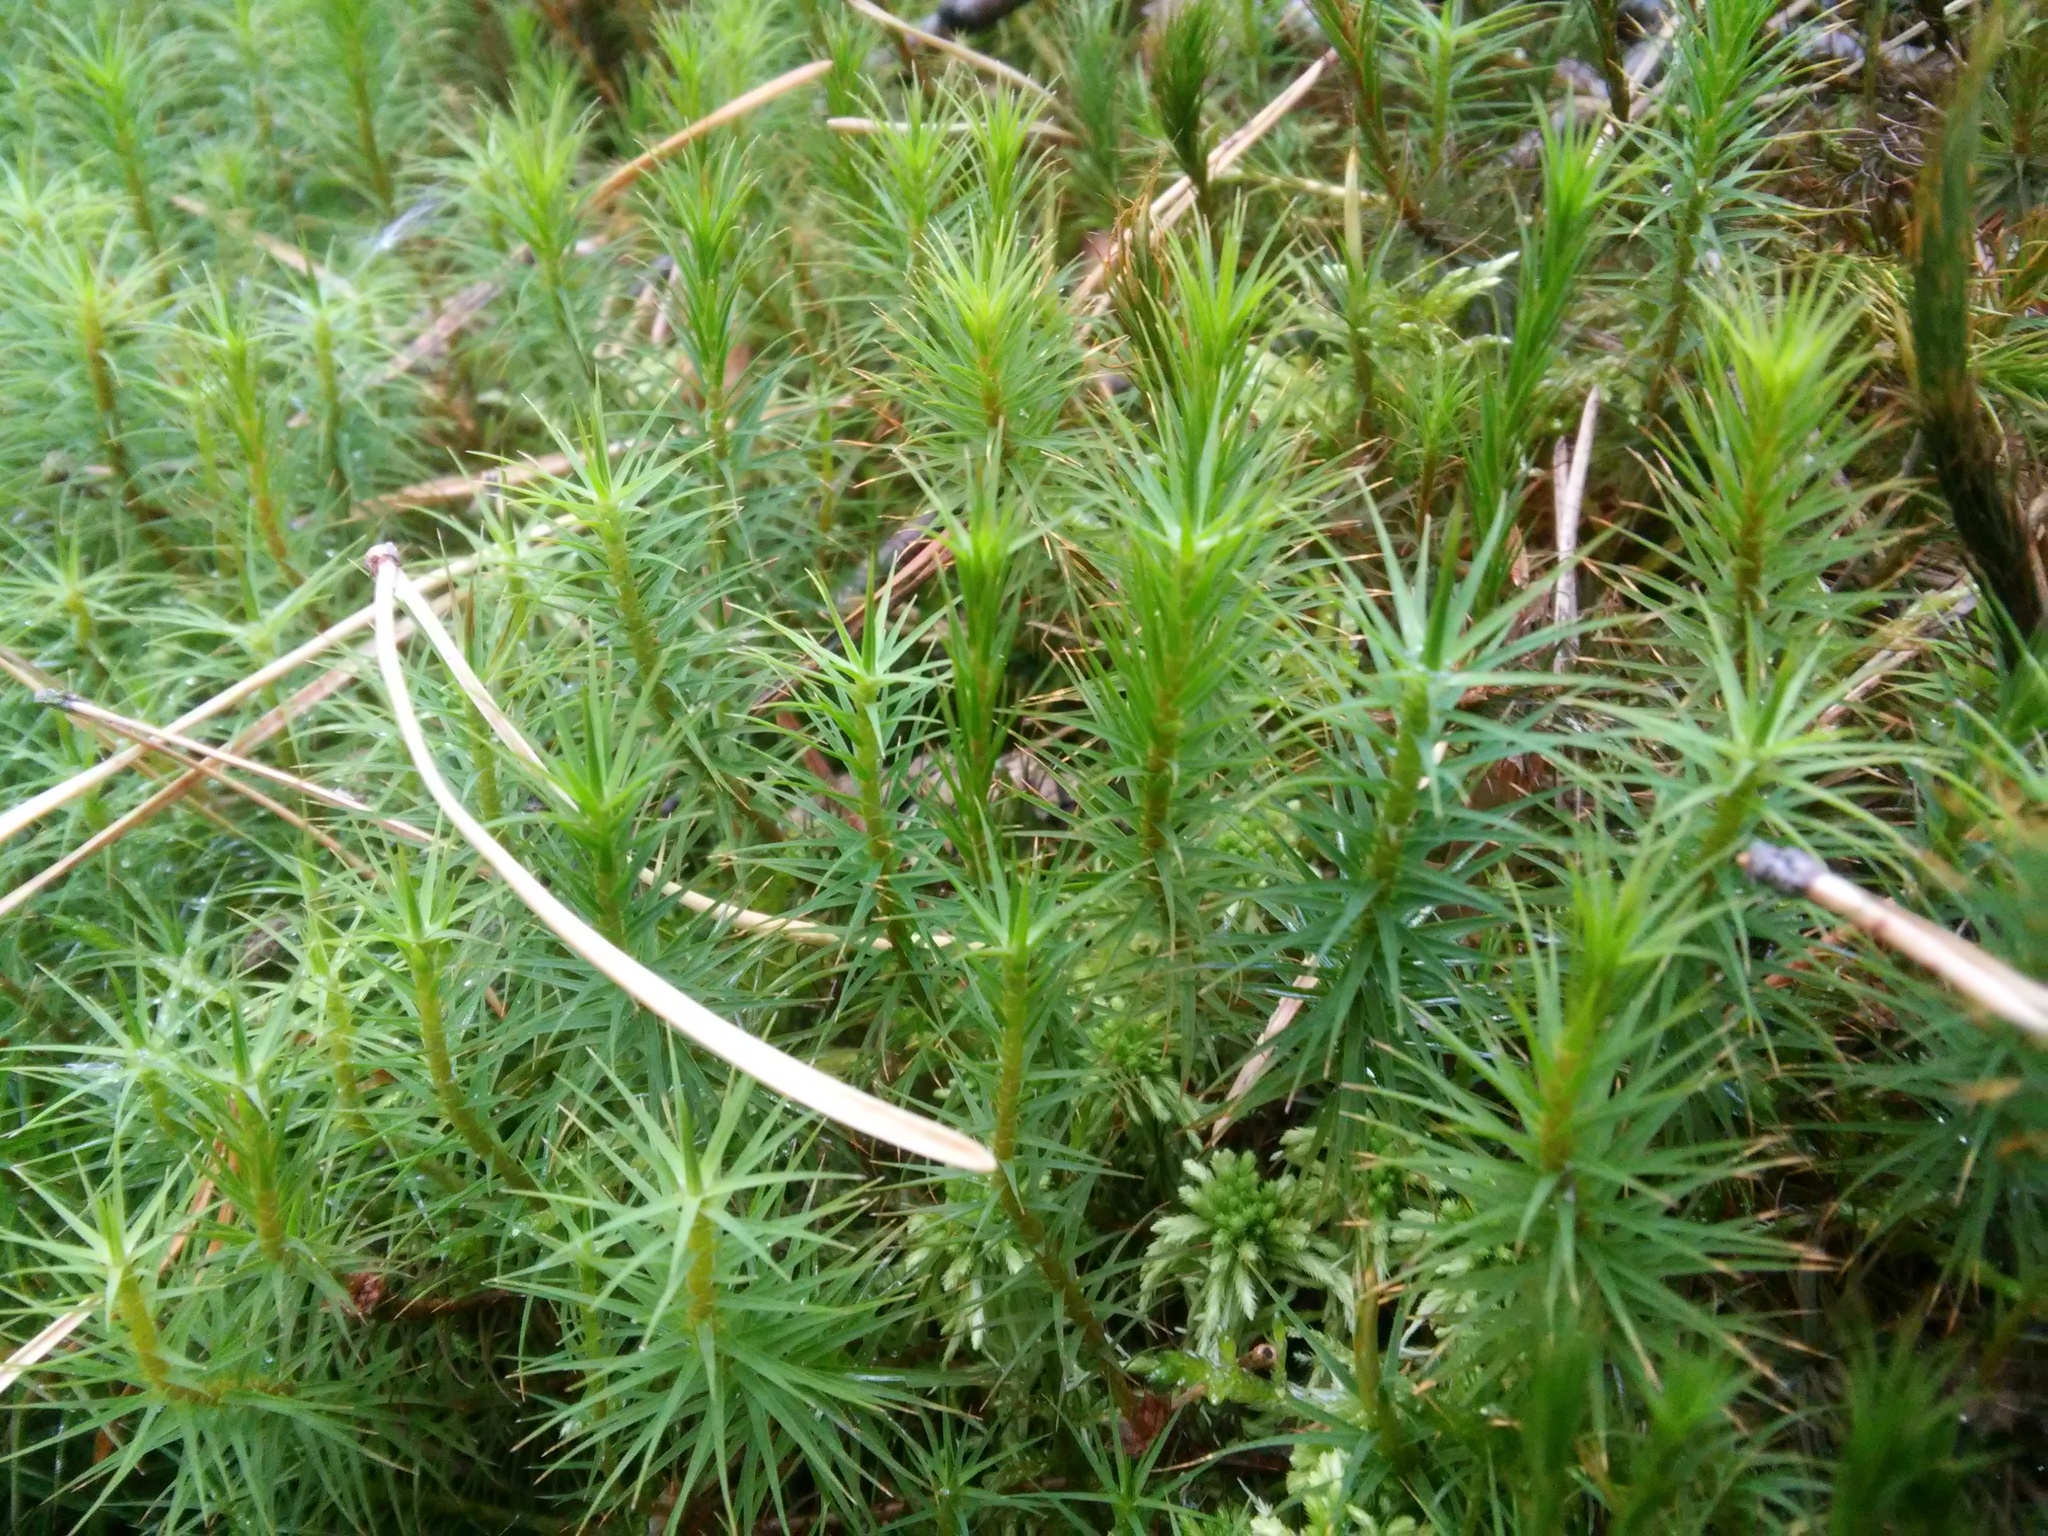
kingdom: Plantae
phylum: Bryophyta
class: Polytrichopsida
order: Polytrichales
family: Polytrichaceae
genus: Polytrichum
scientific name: Polytrichum commune
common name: Common haircap
